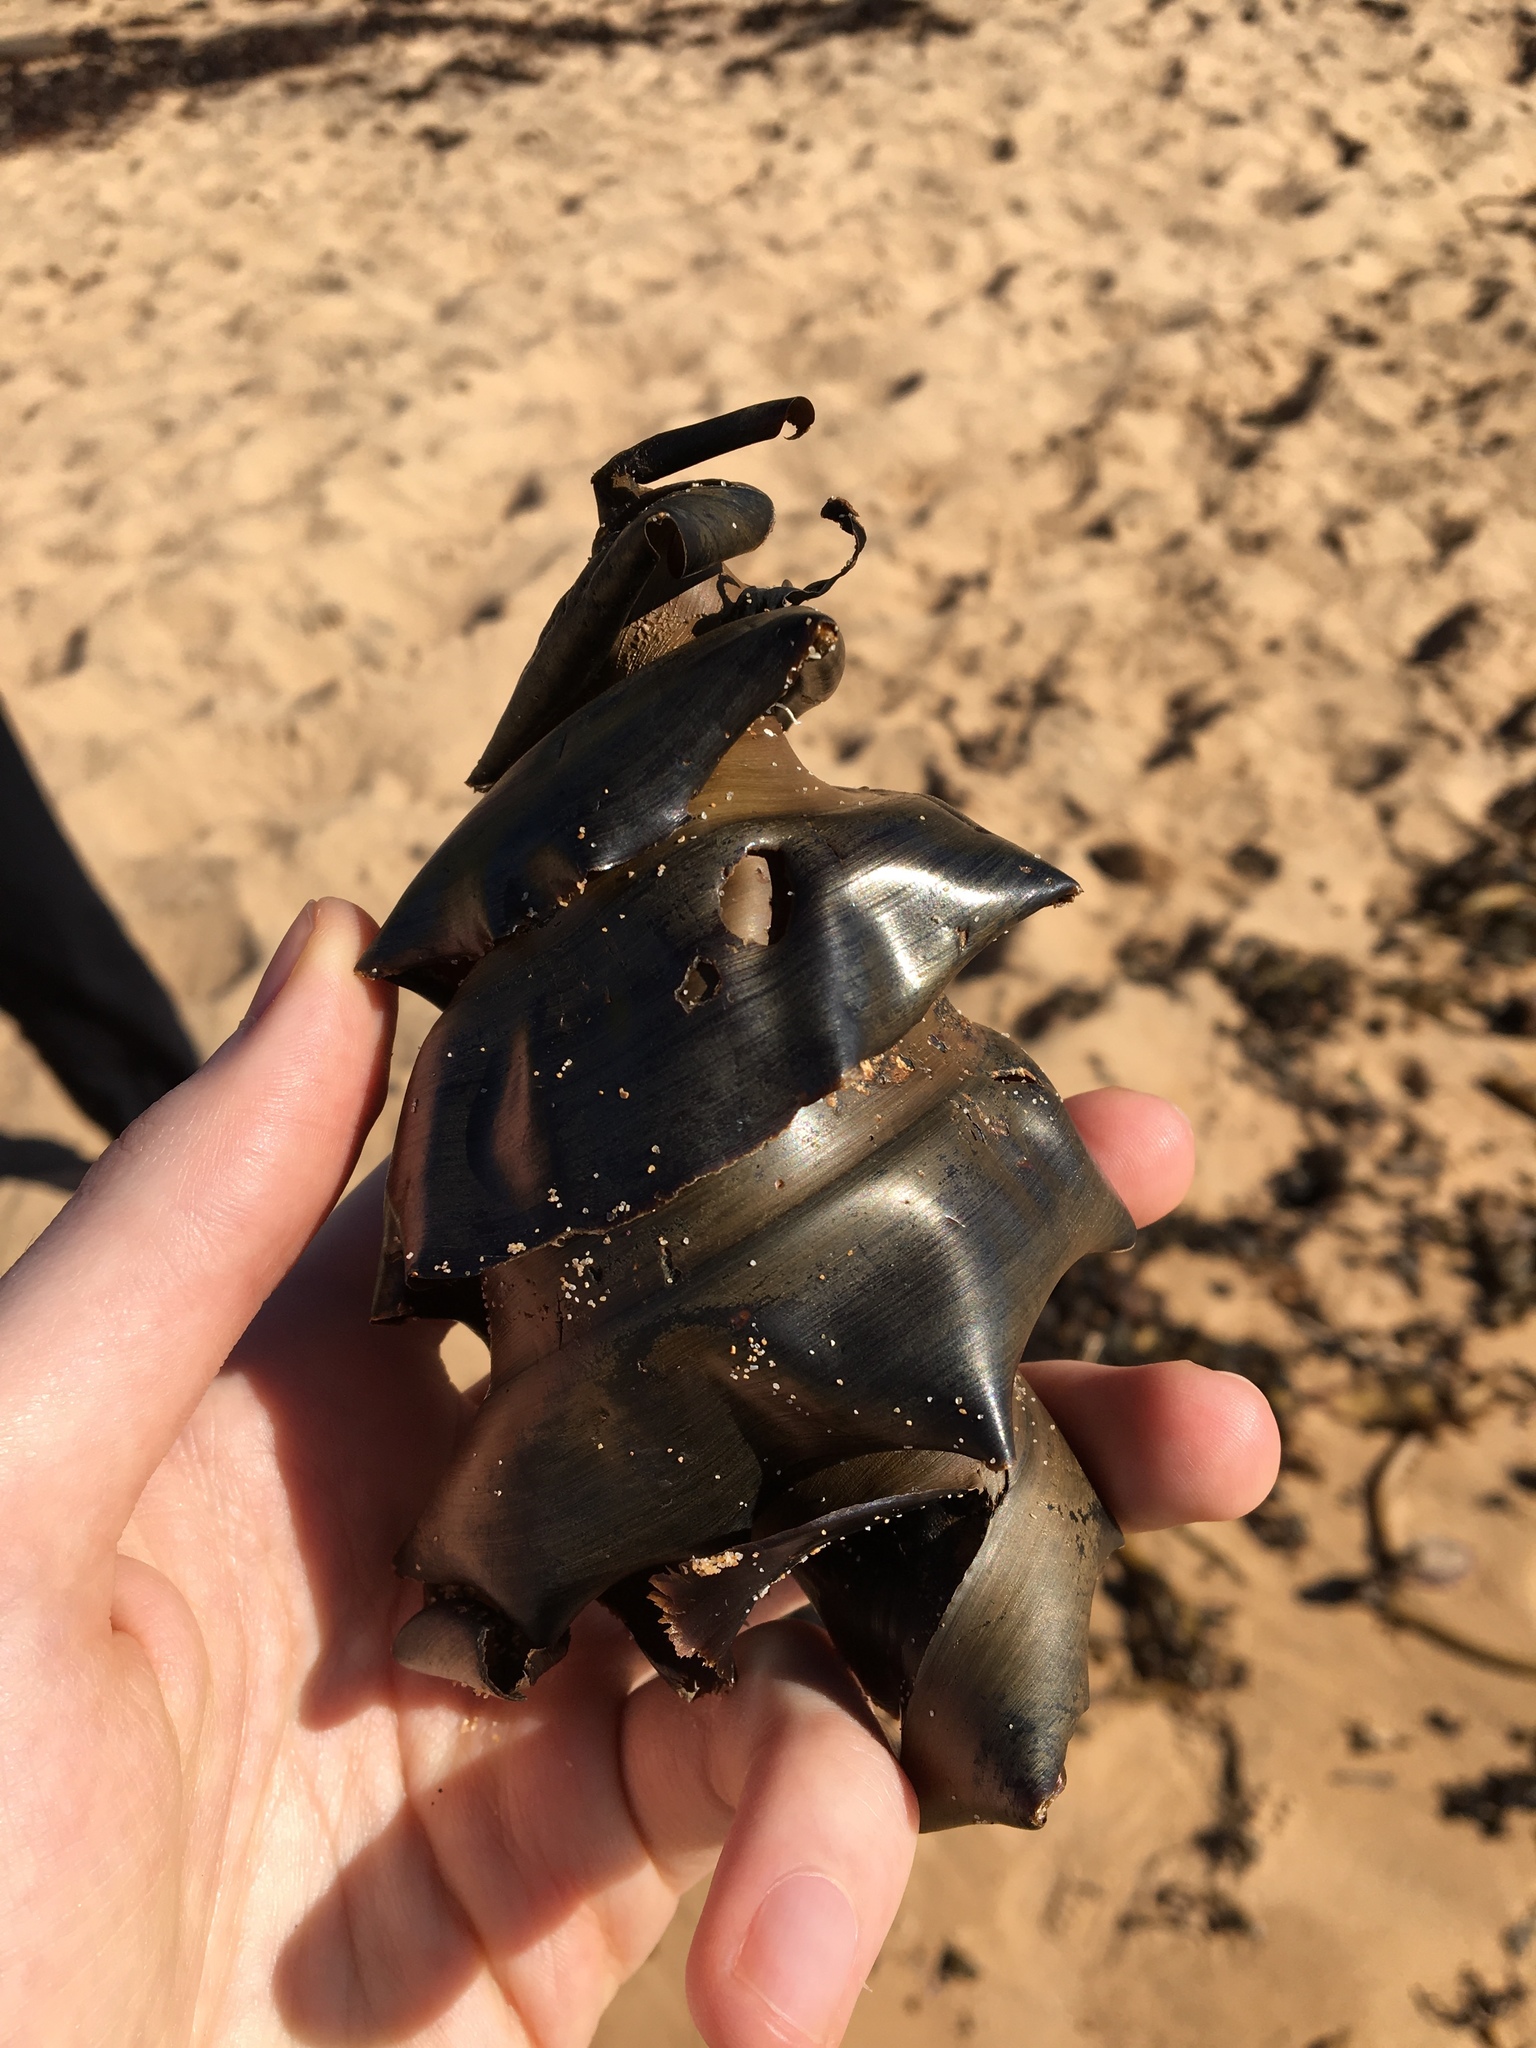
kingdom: Animalia
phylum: Chordata
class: Elasmobranchii
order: Heterodontiformes
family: Heterodontidae
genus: Heterodontus
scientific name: Heterodontus portusjacksoni
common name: Port jackson shark
